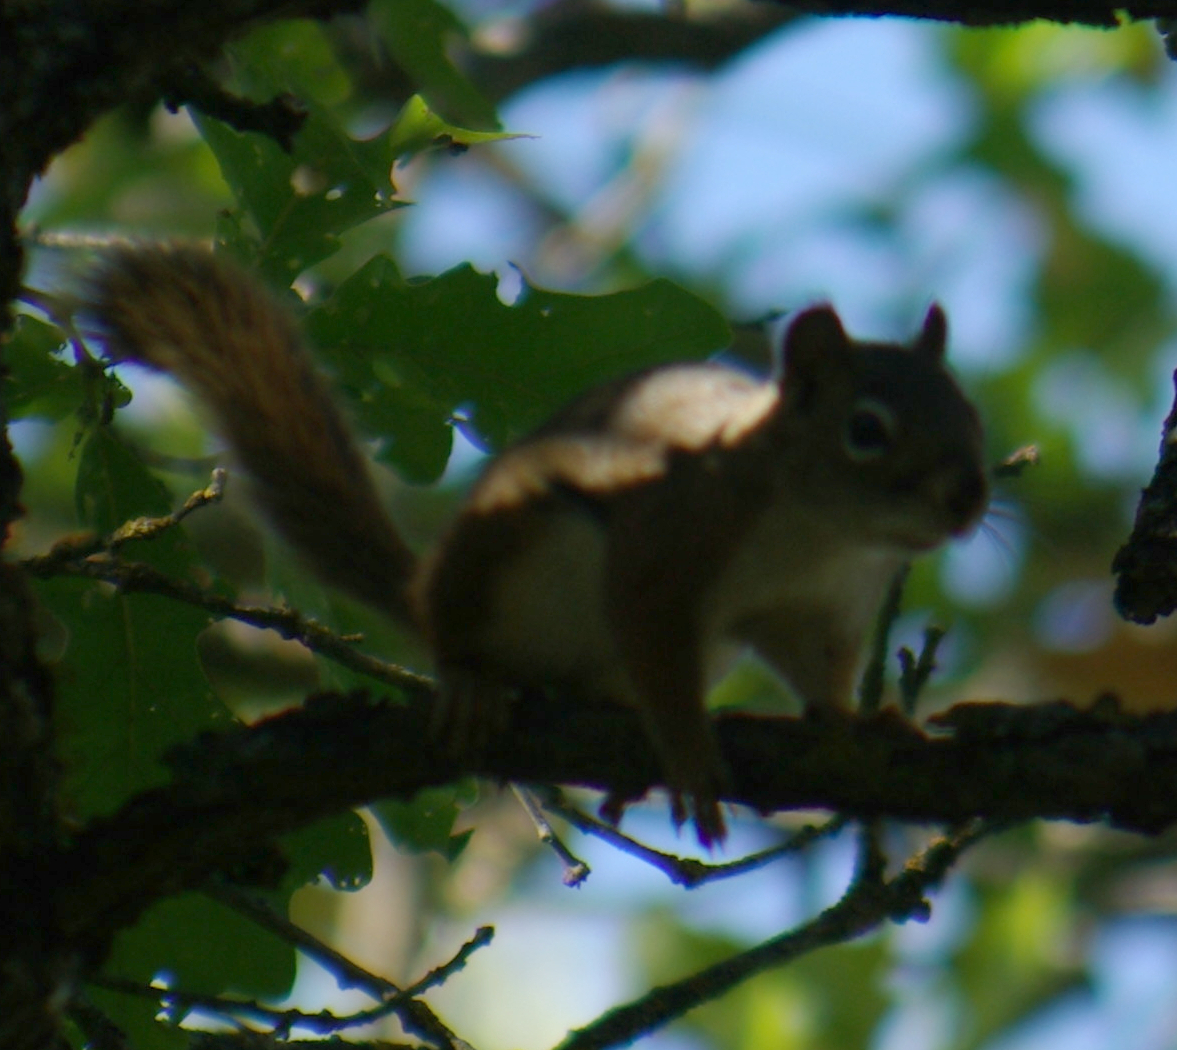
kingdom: Animalia
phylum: Chordata
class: Mammalia
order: Rodentia
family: Sciuridae
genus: Tamiasciurus
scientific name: Tamiasciurus hudsonicus
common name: Red squirrel
